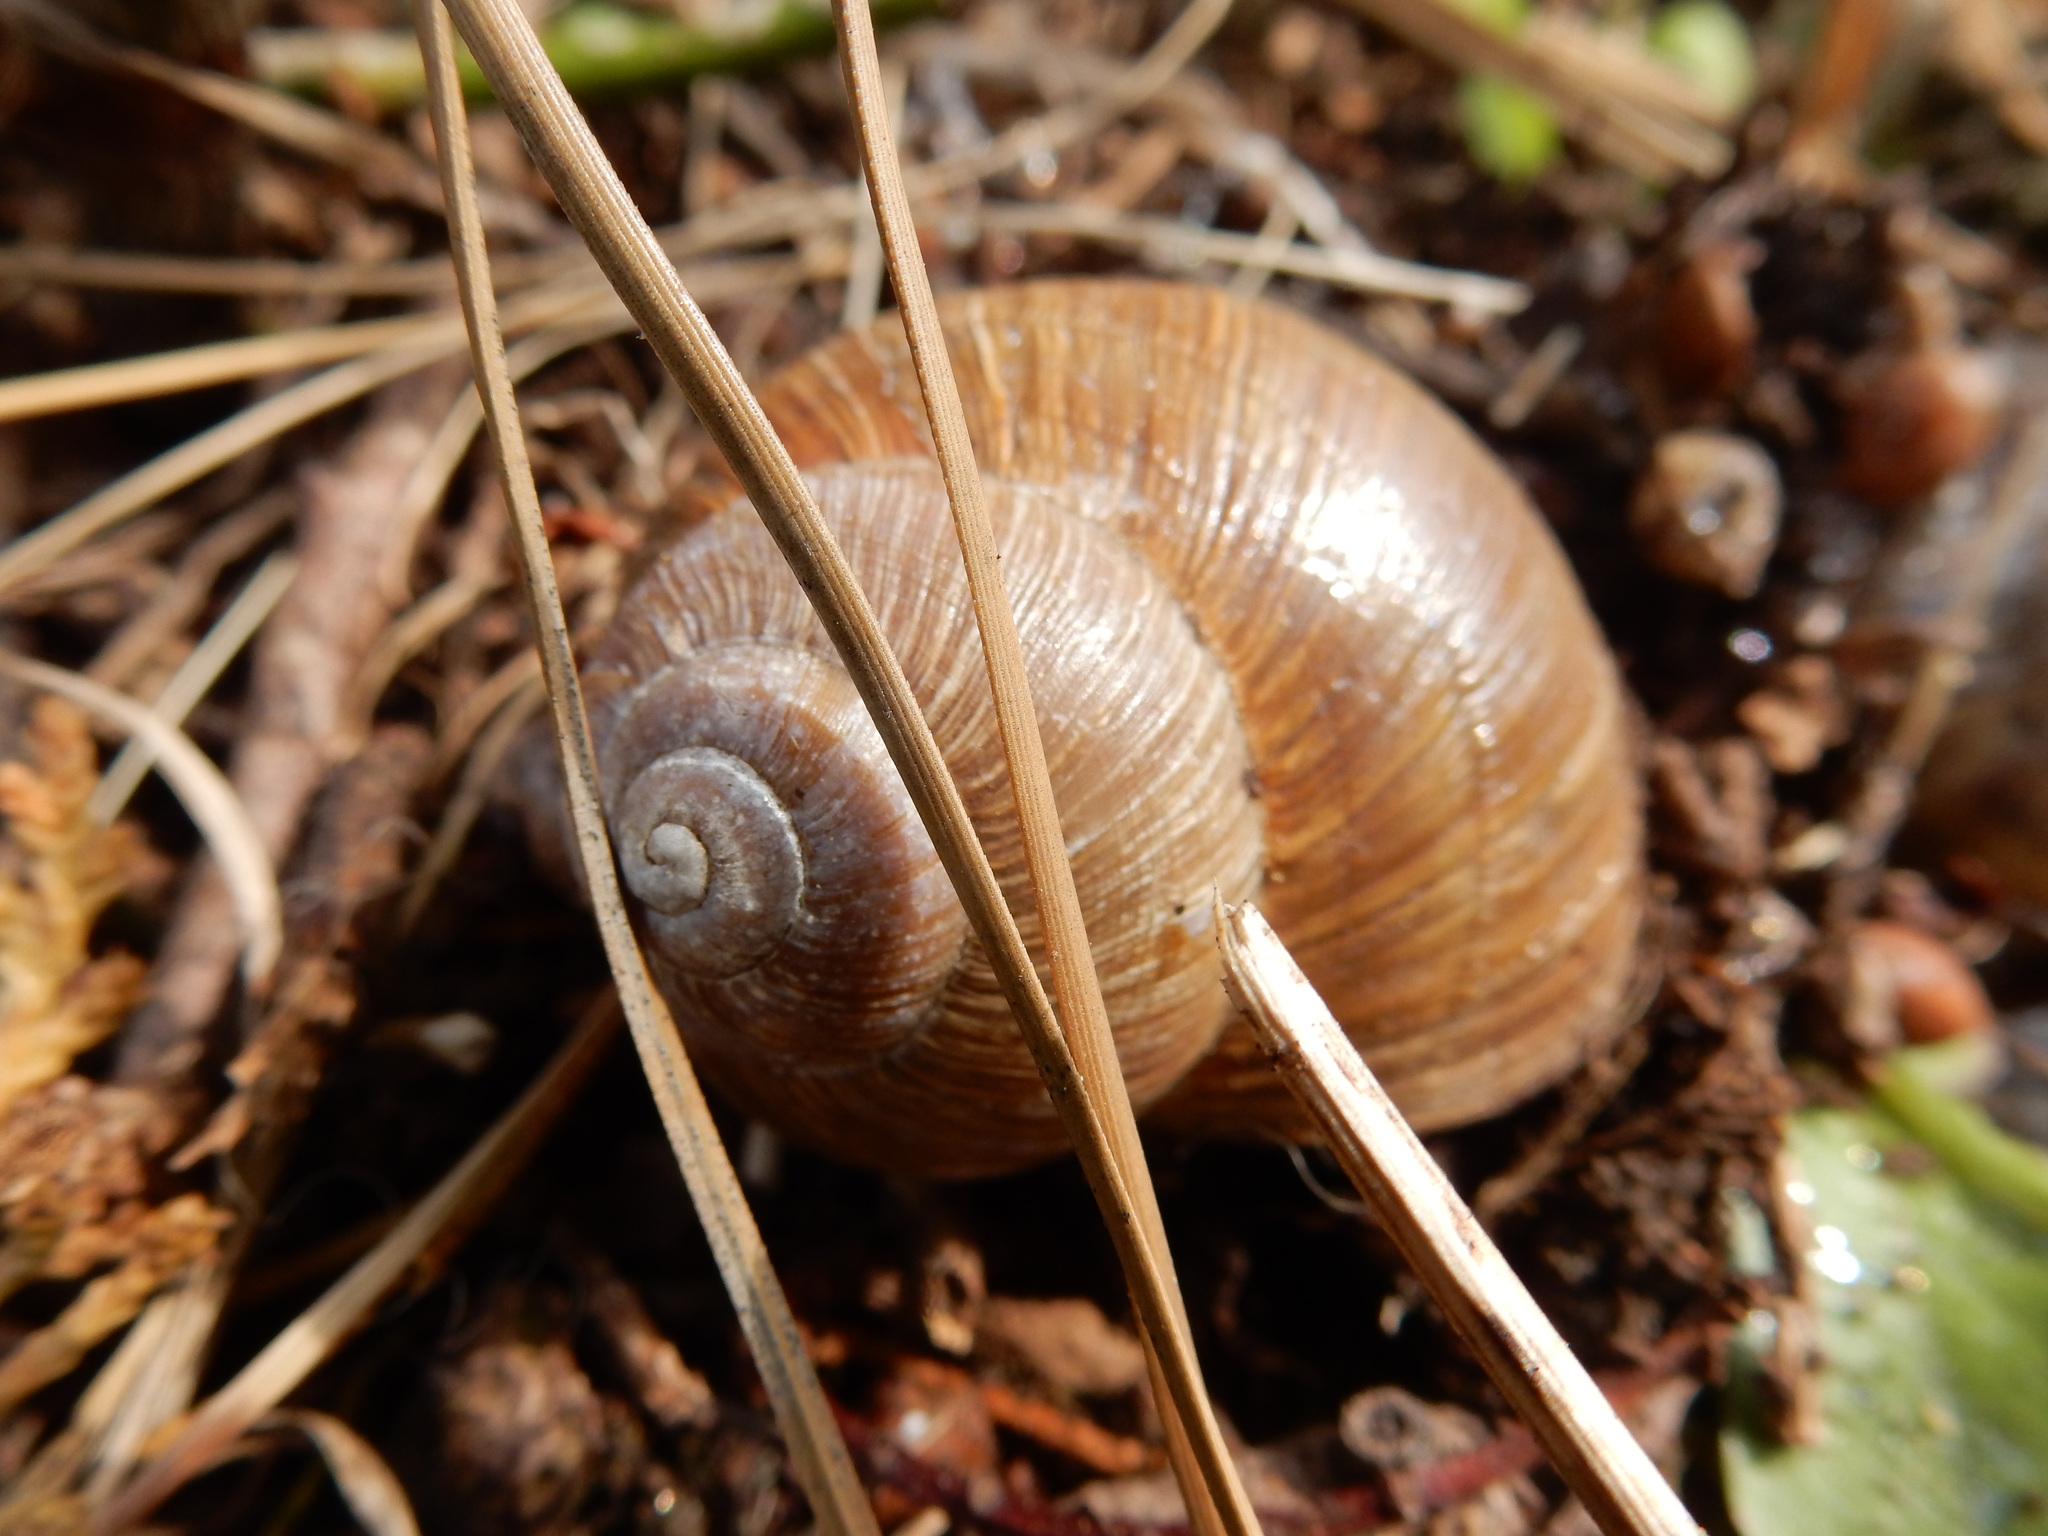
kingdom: Animalia
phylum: Mollusca
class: Gastropoda
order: Stylommatophora
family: Helicidae
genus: Helix
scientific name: Helix pomatia
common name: Roman snail
